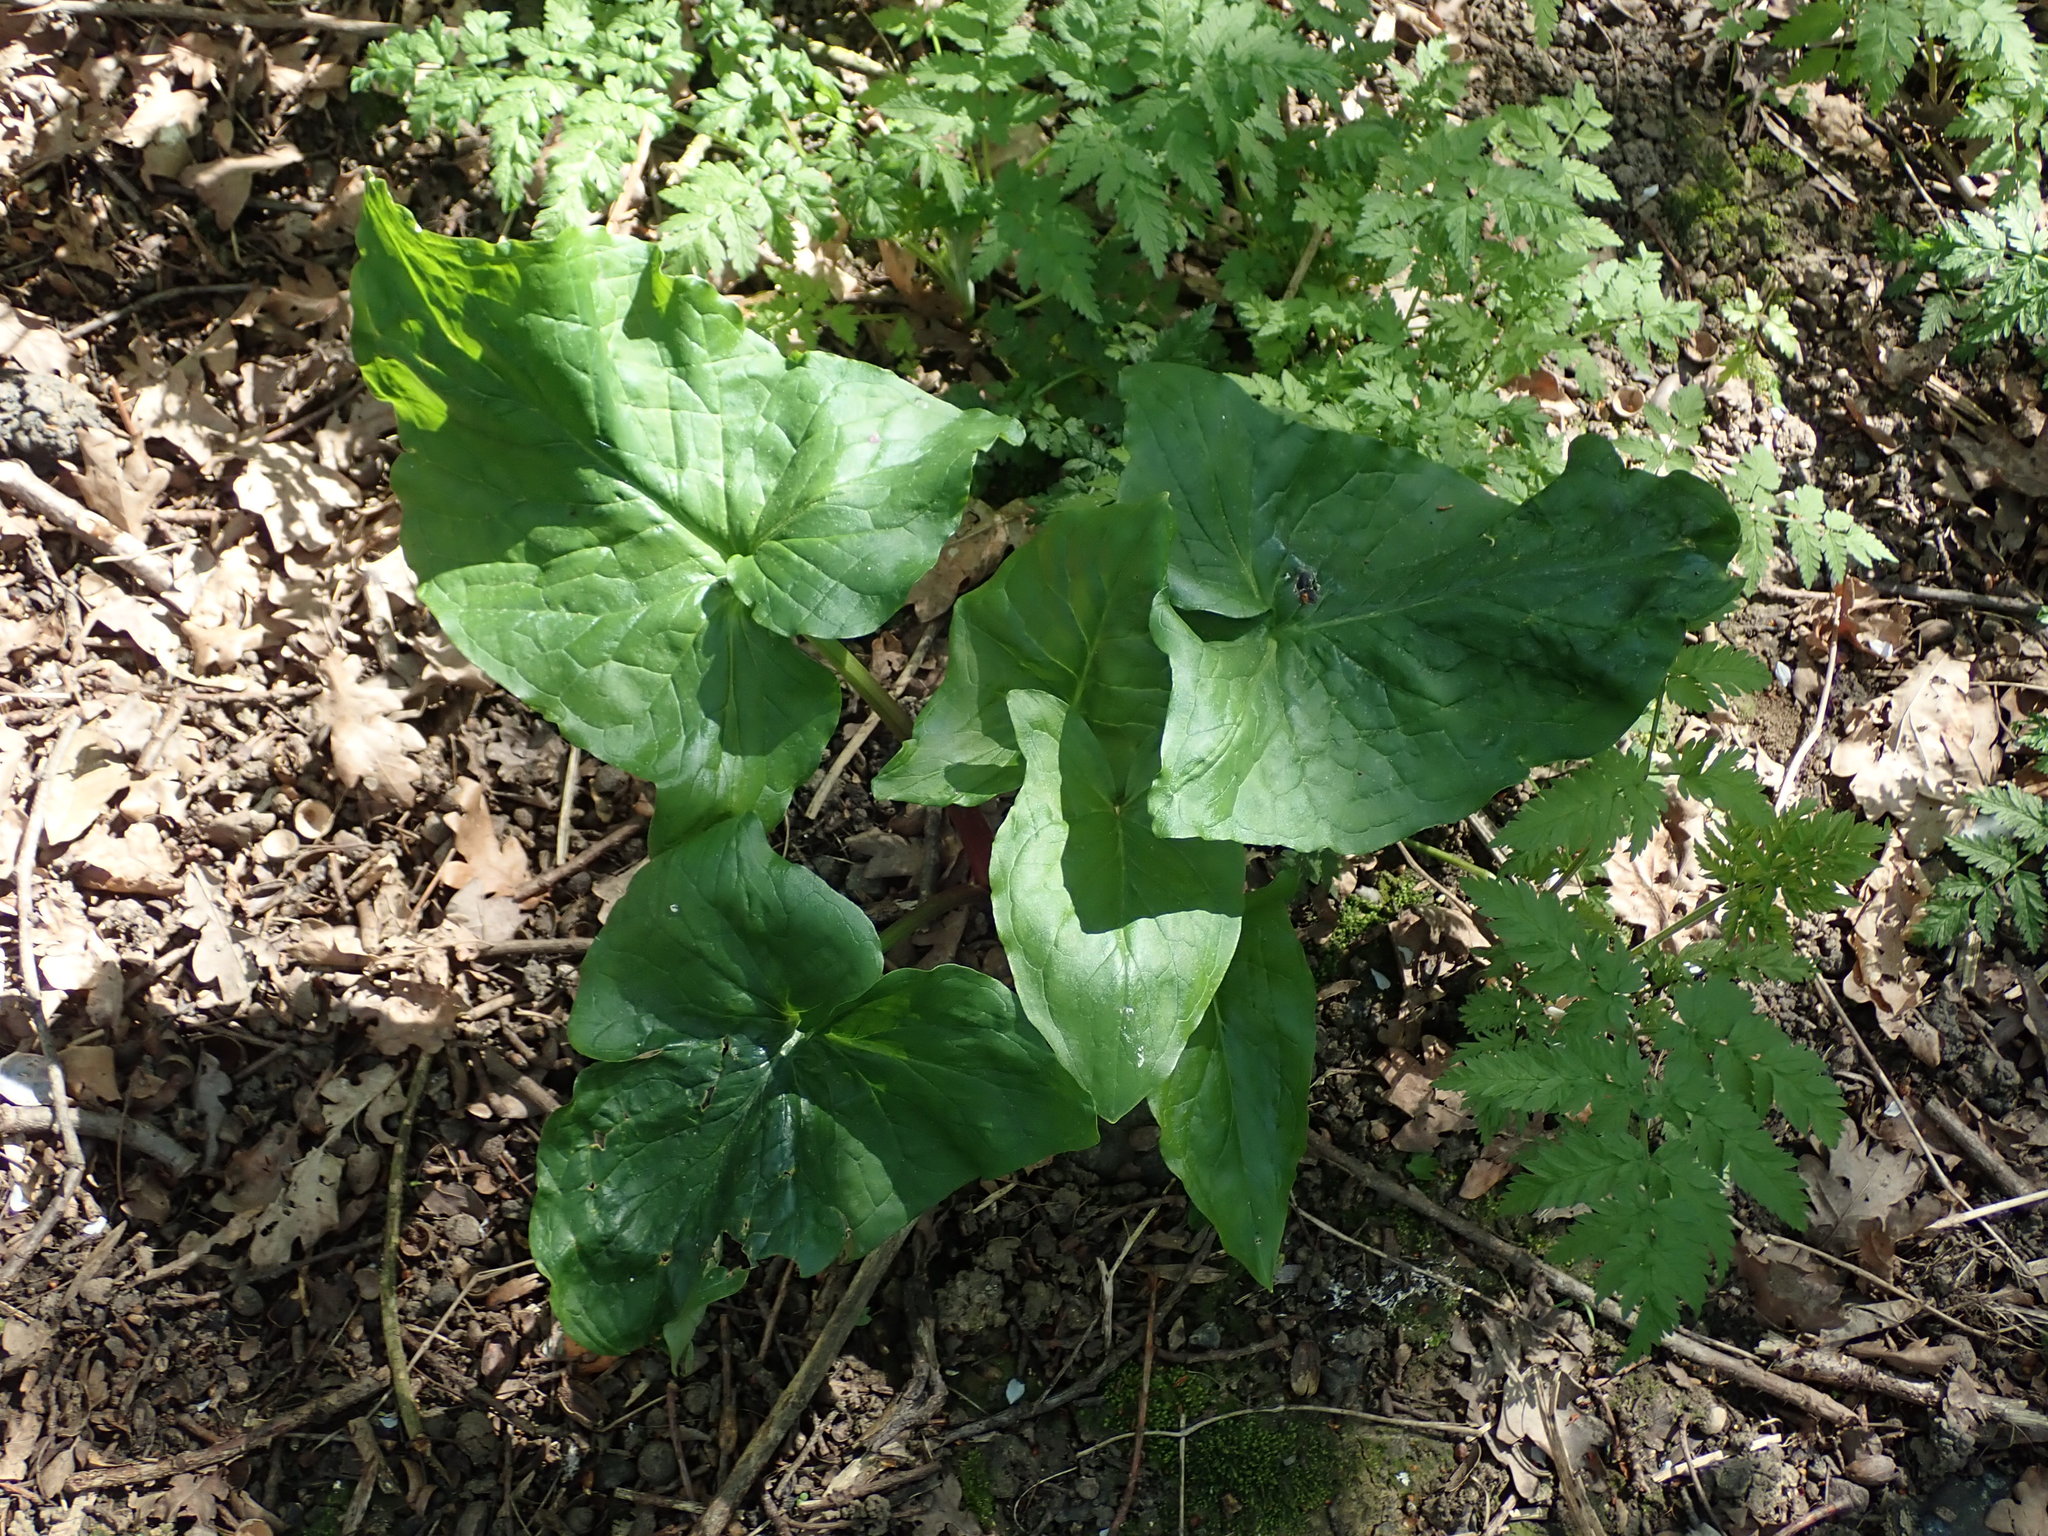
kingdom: Plantae
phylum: Tracheophyta
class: Liliopsida
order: Alismatales
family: Araceae
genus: Arum
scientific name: Arum maculatum
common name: Lords-and-ladies
